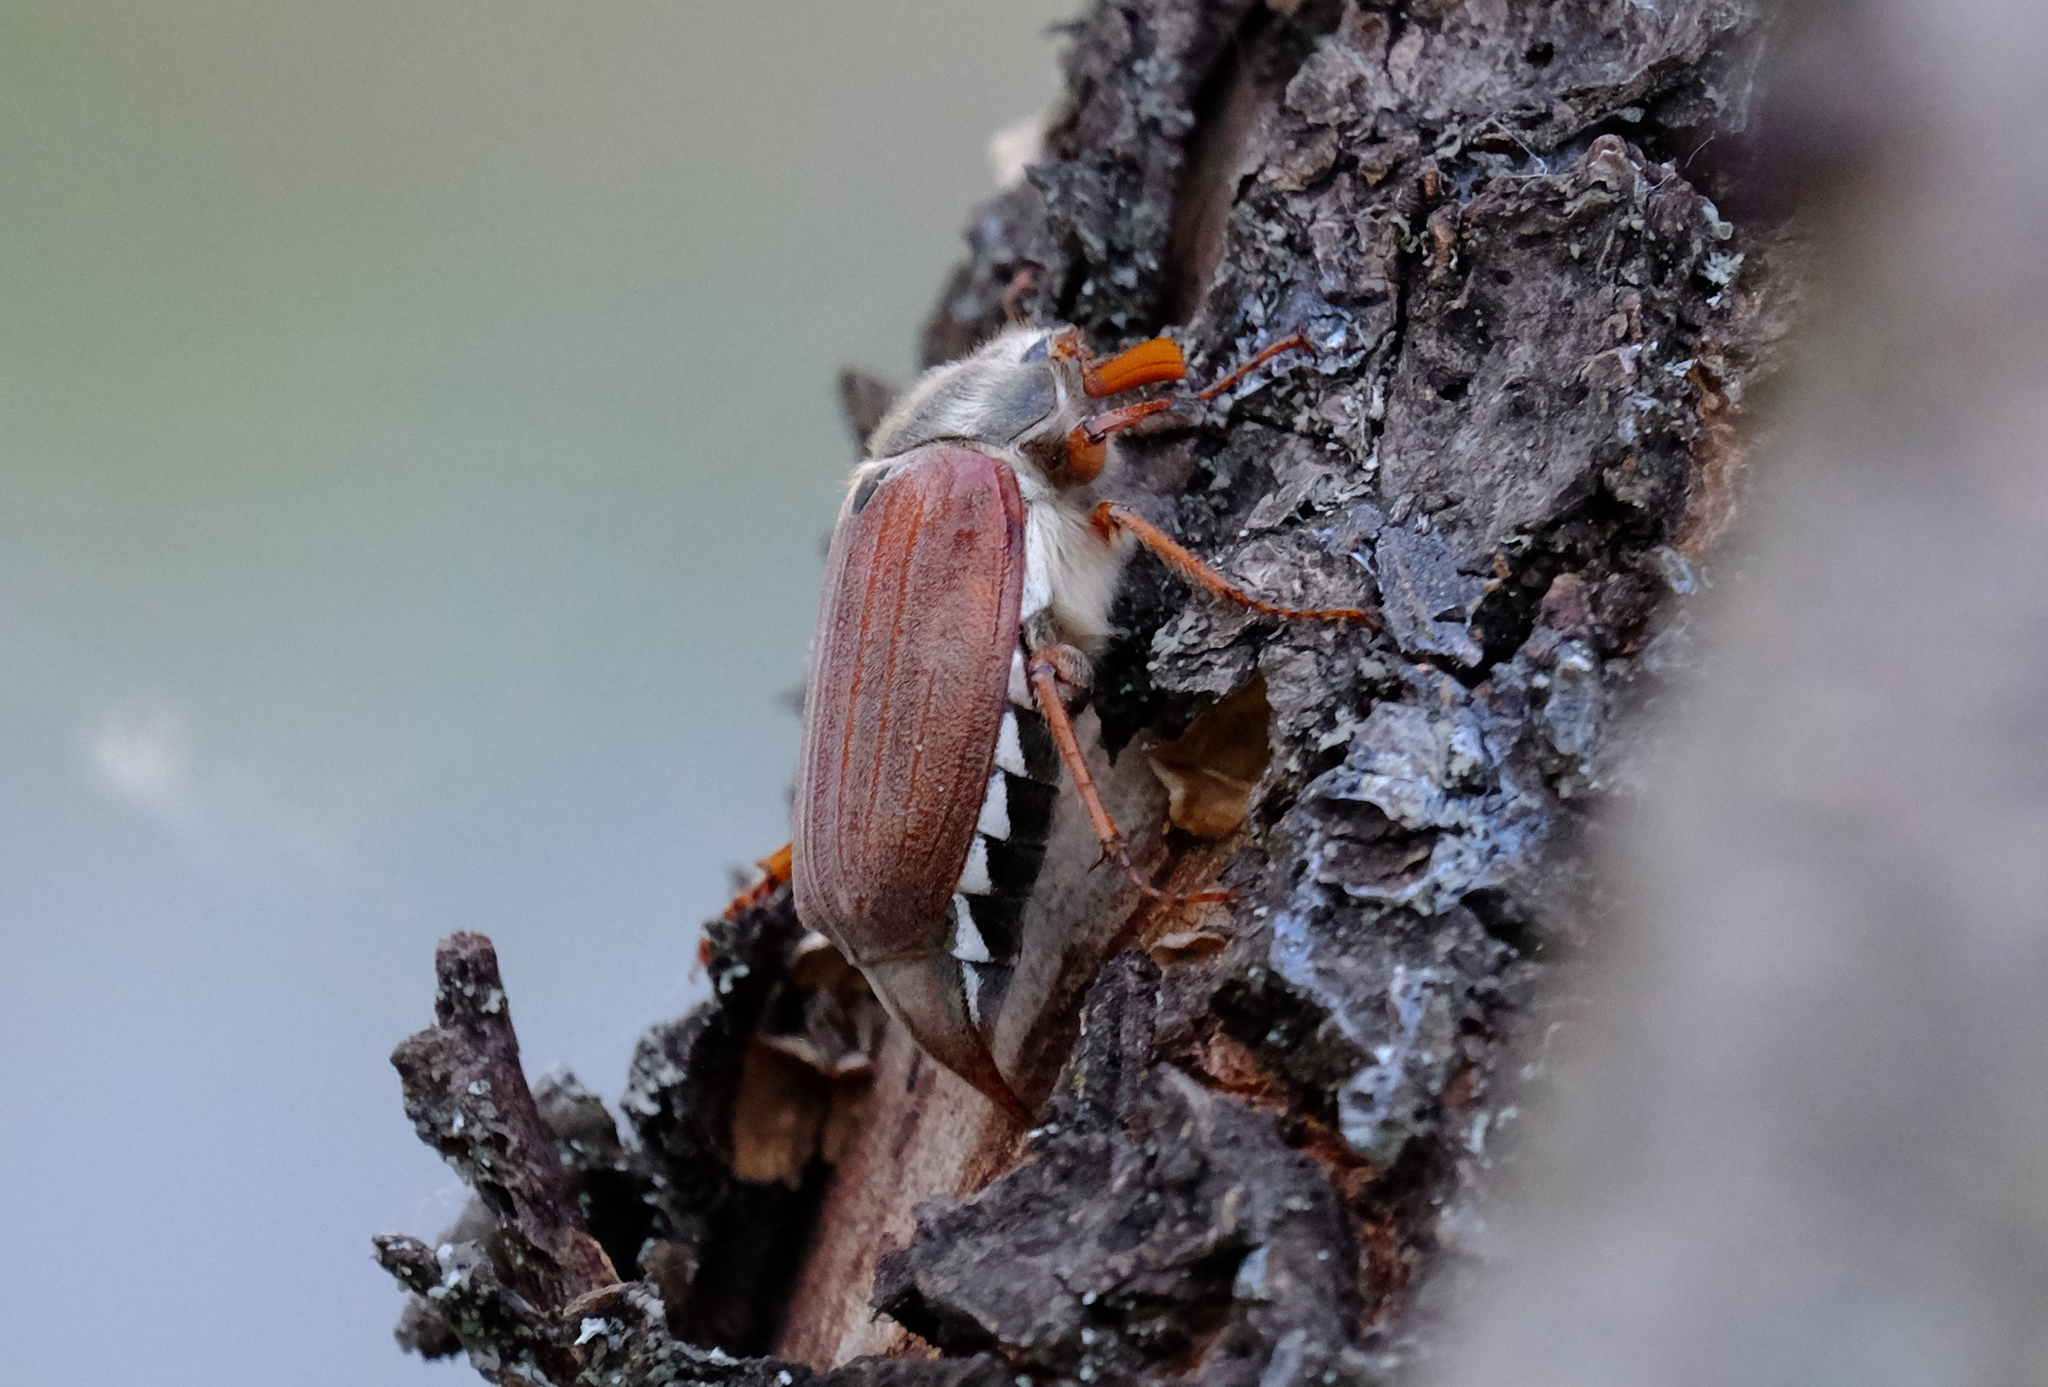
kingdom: Animalia
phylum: Arthropoda
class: Insecta
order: Coleoptera
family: Scarabaeidae
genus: Melolontha
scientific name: Melolontha melolontha
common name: Cockchafer maybeetle
